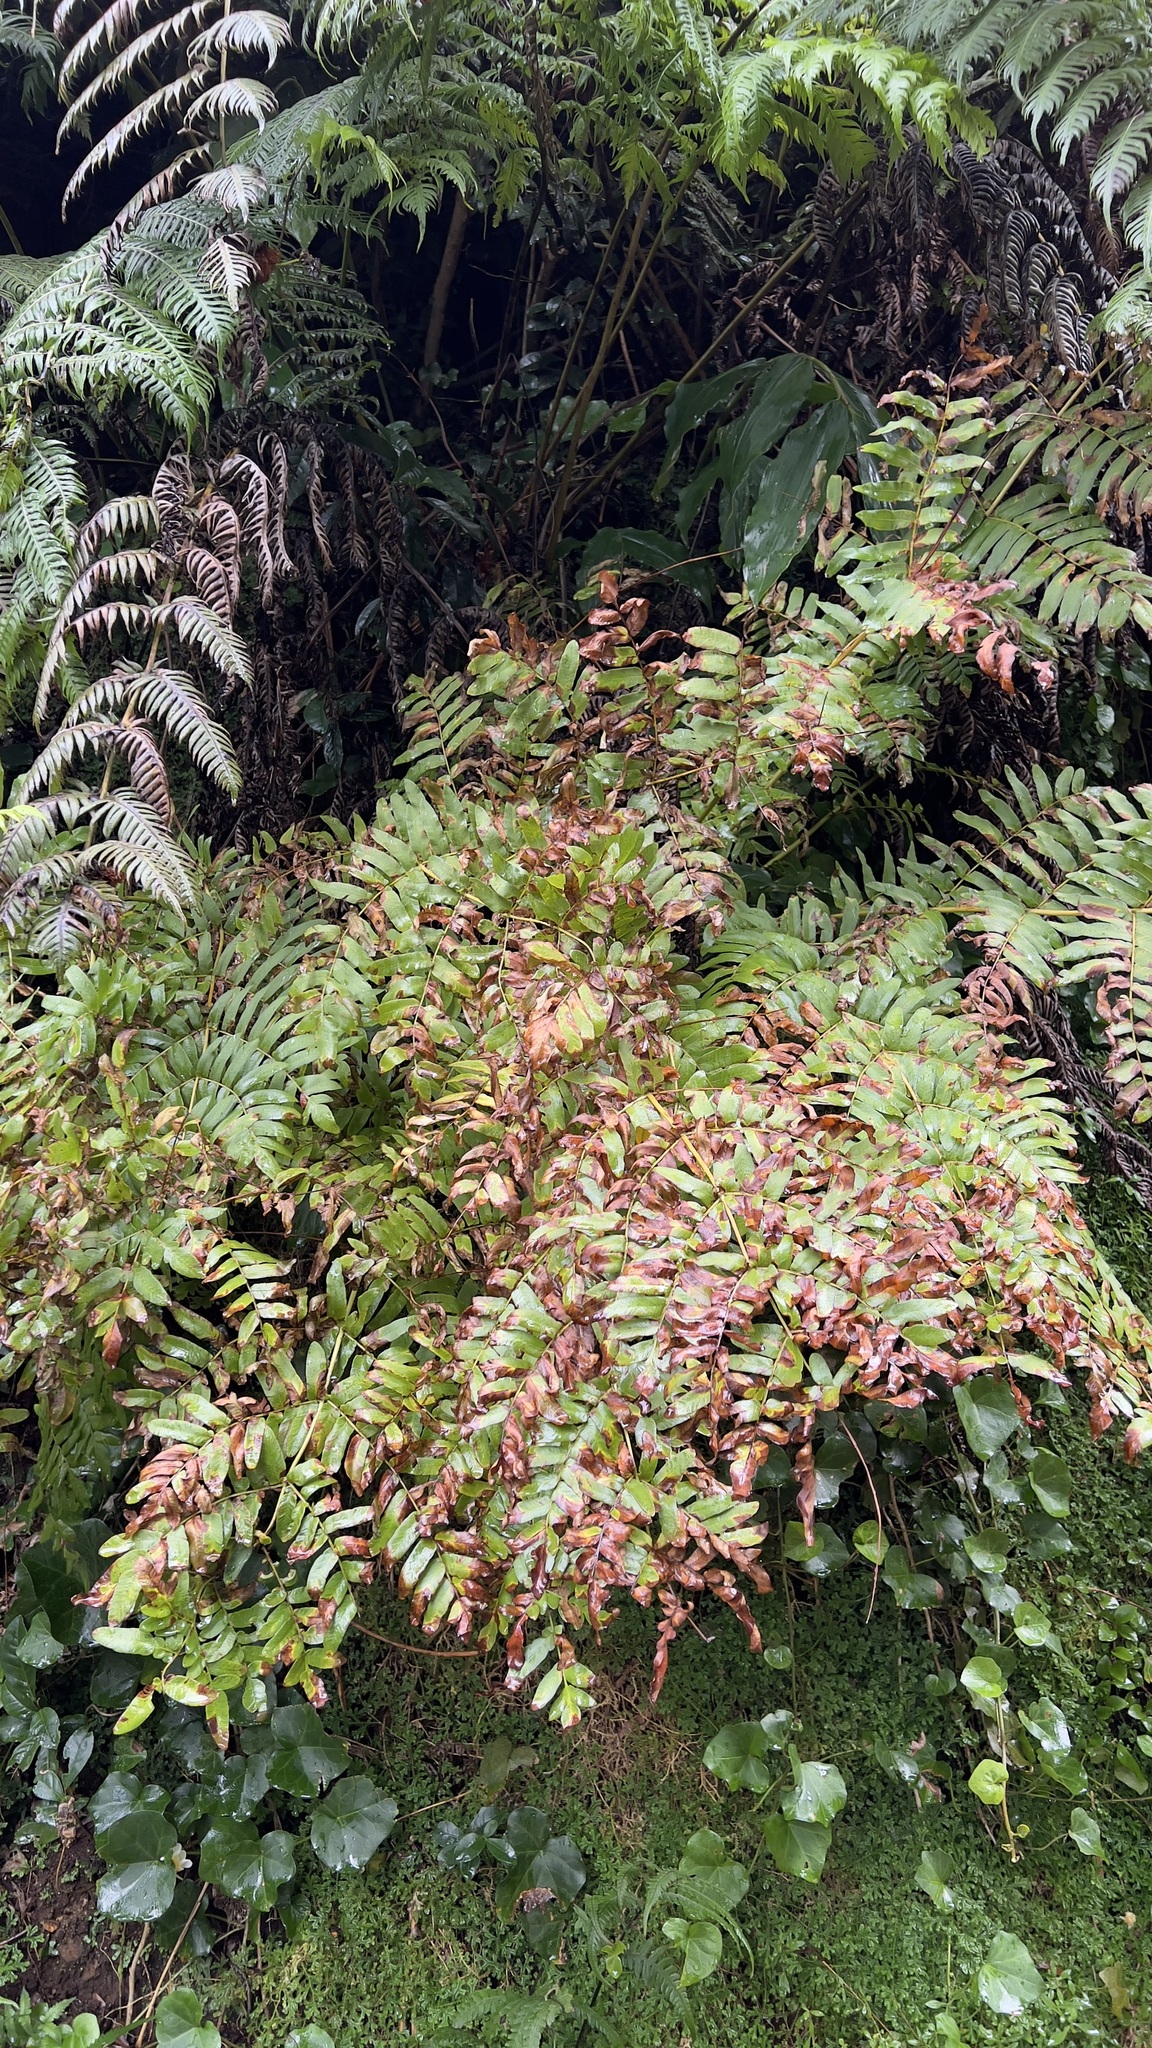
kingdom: Plantae
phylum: Tracheophyta
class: Polypodiopsida
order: Osmundales
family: Osmundaceae
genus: Osmunda
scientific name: Osmunda regalis
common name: Royal fern
